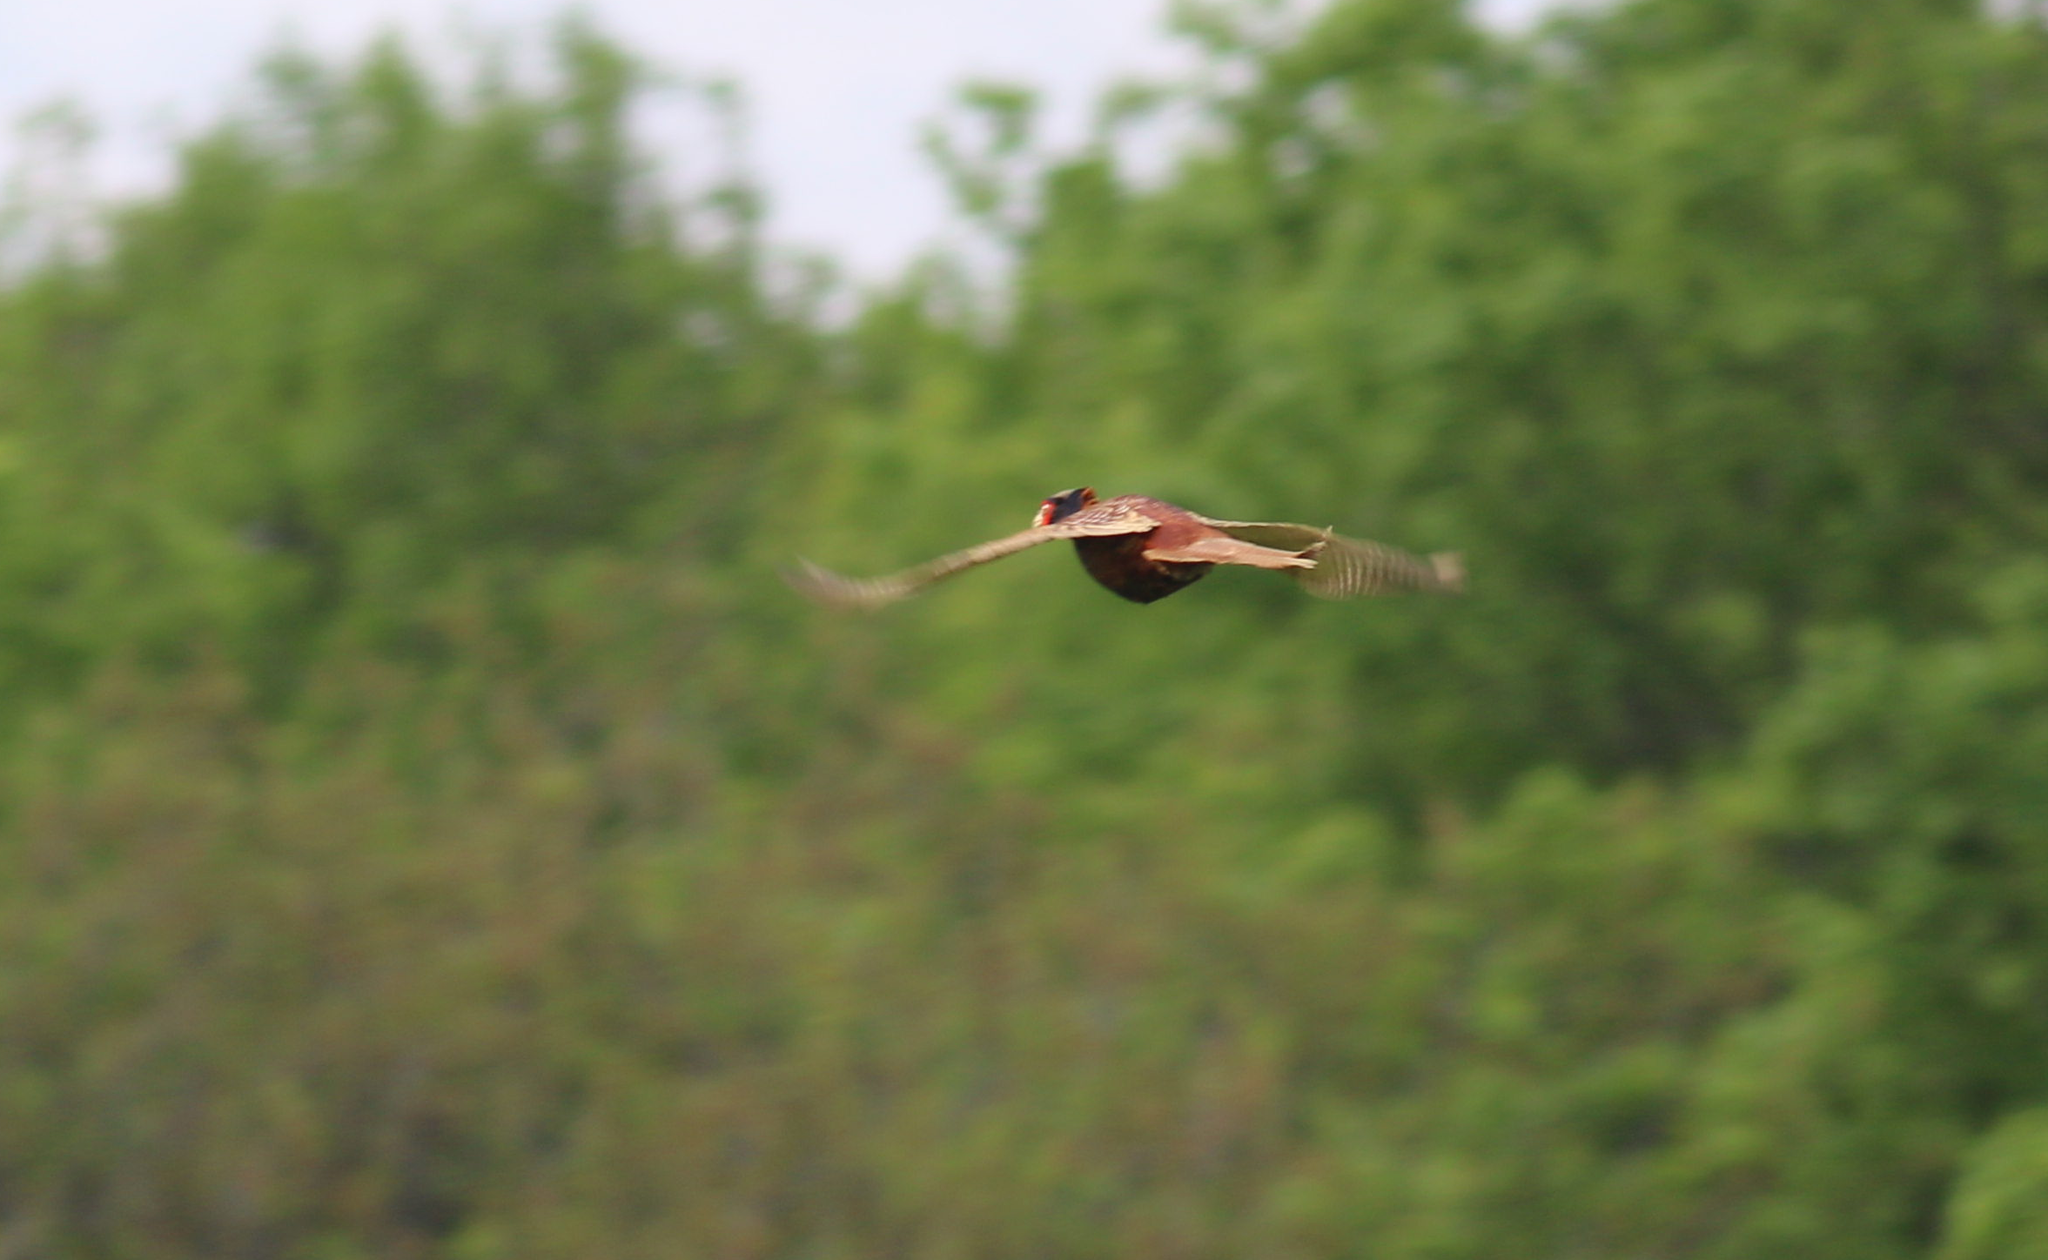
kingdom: Animalia
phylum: Chordata
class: Aves
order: Galliformes
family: Phasianidae
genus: Phasianus
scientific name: Phasianus colchicus
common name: Common pheasant
